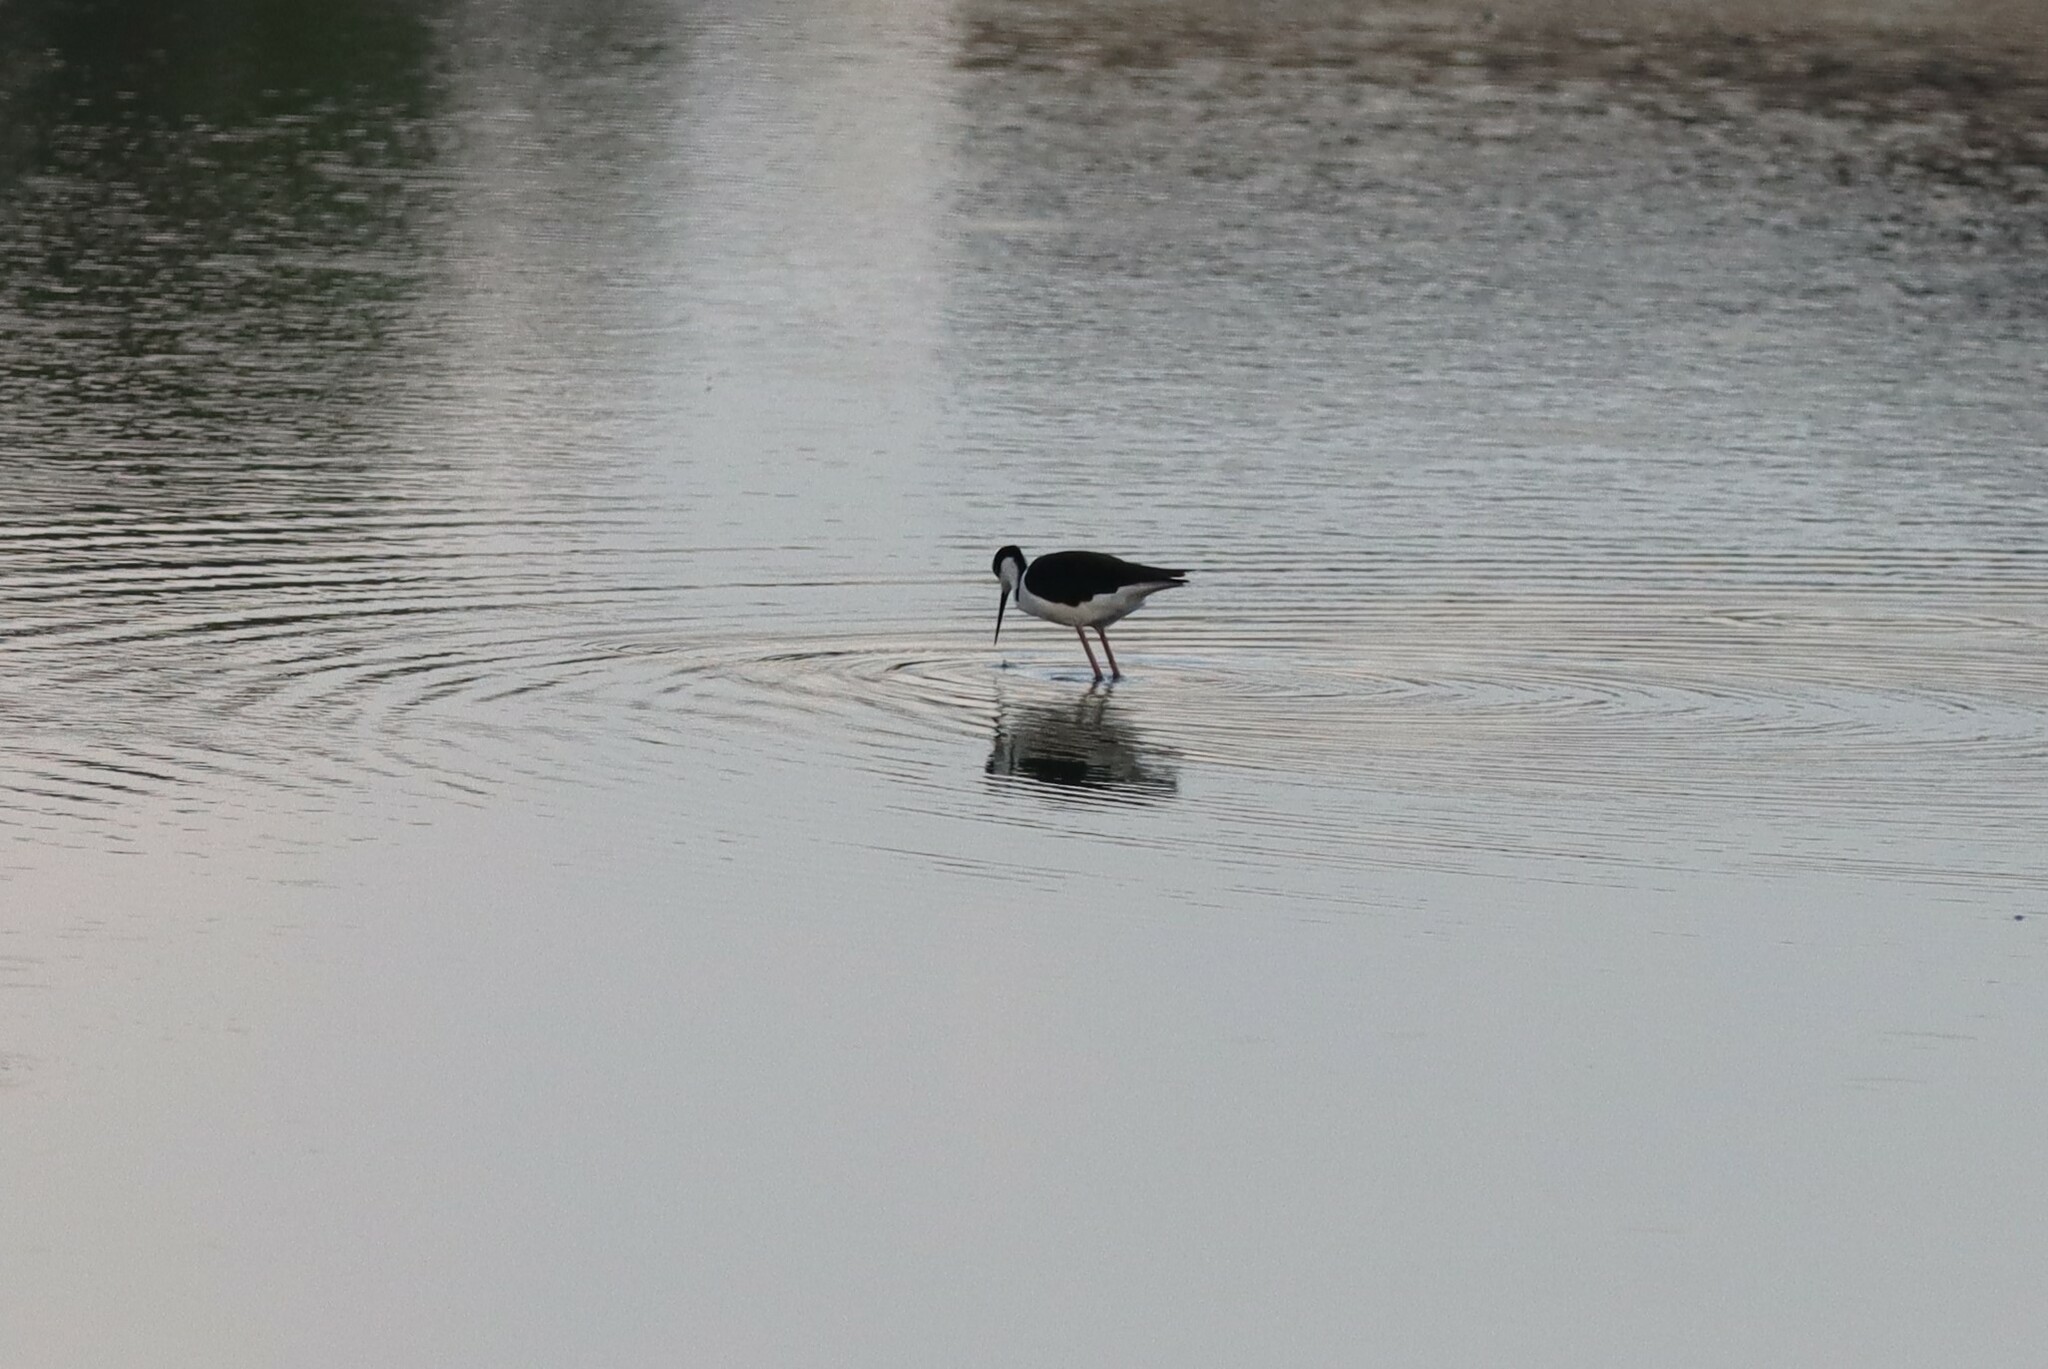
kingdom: Animalia
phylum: Chordata
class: Aves
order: Charadriiformes
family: Recurvirostridae
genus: Himantopus
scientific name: Himantopus mexicanus
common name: Black-necked stilt
